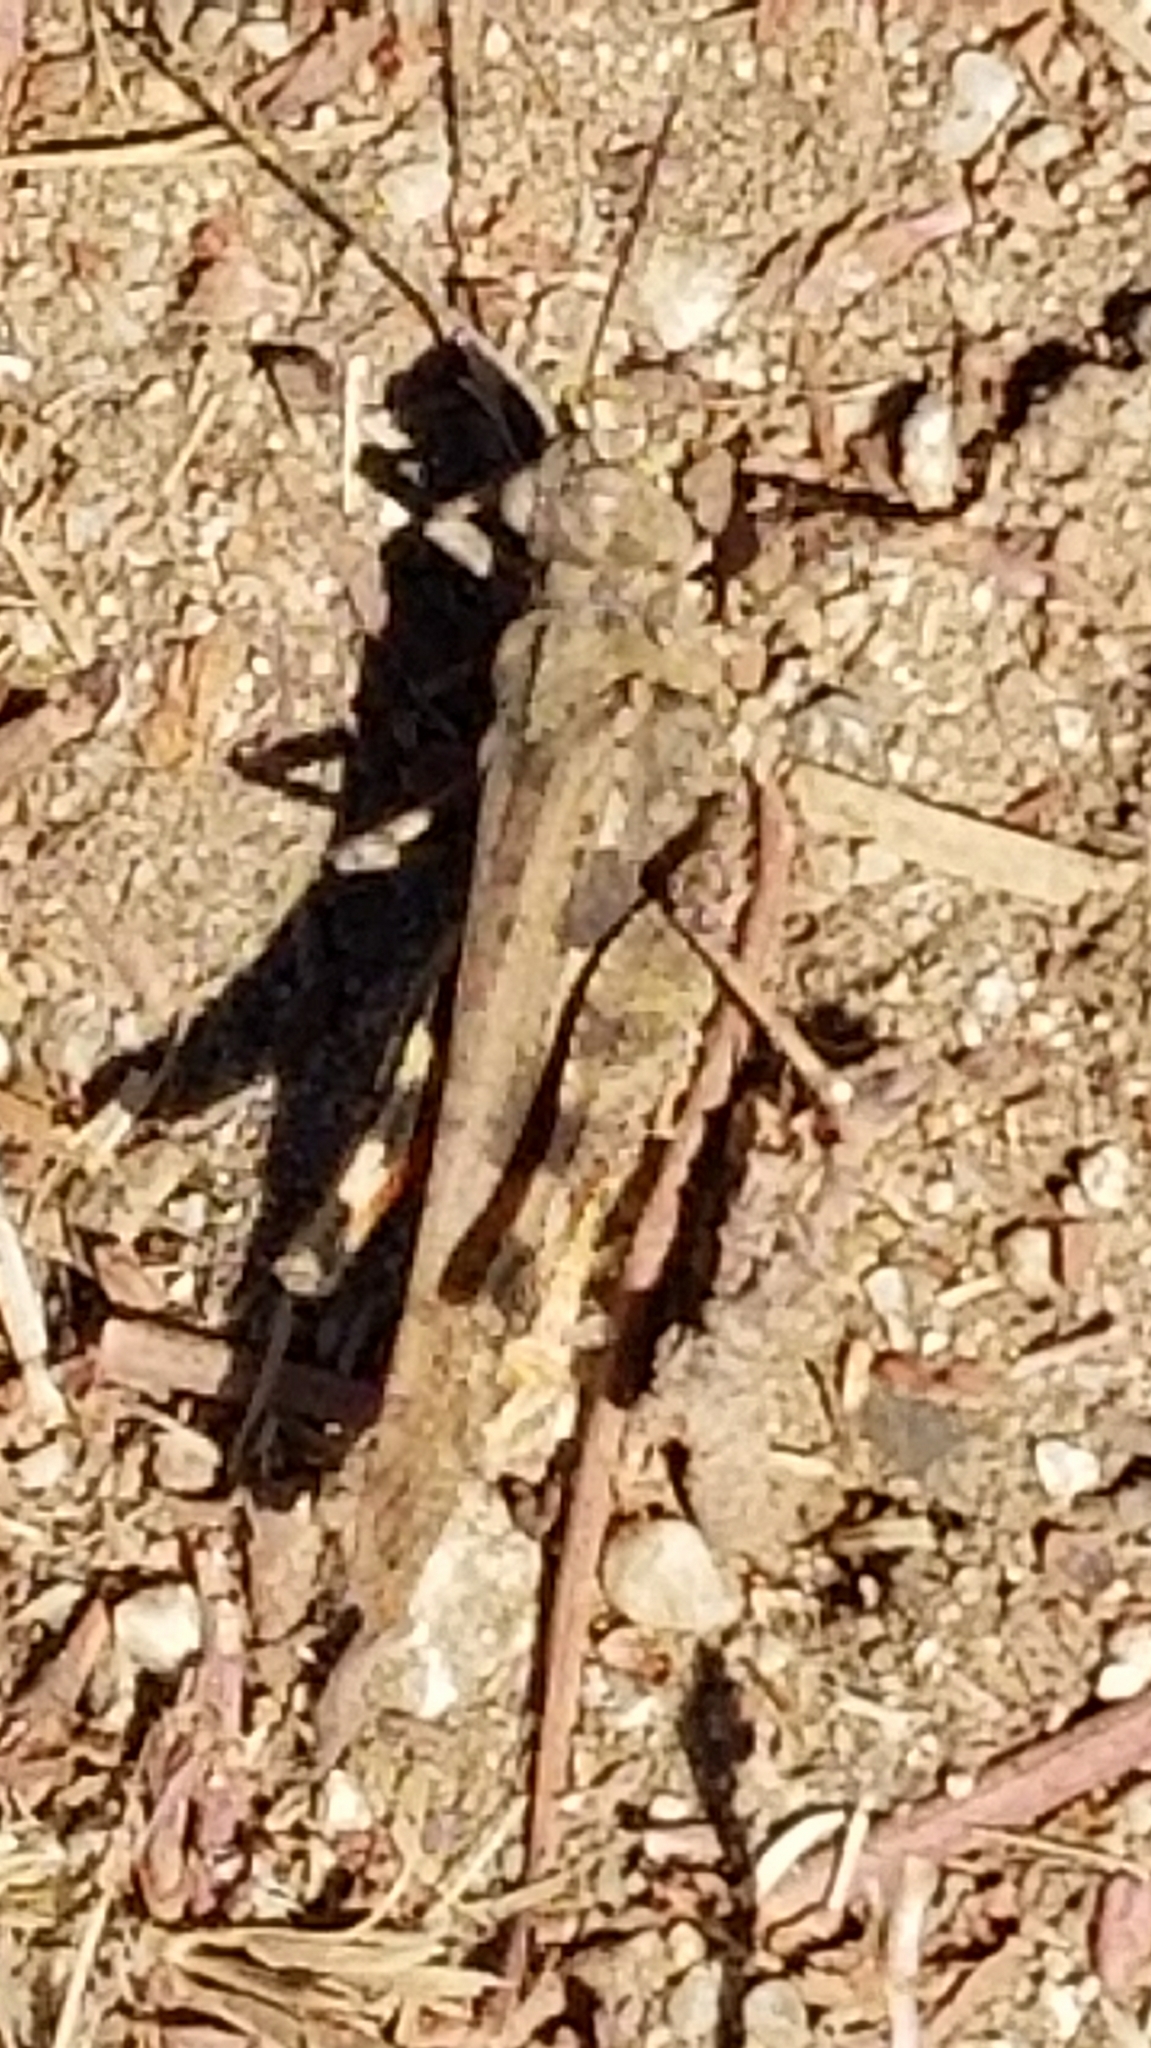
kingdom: Animalia
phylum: Arthropoda
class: Insecta
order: Orthoptera
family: Acrididae
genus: Conozoa
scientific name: Conozoa sulcifrons
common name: Groove-headed grasshopper
